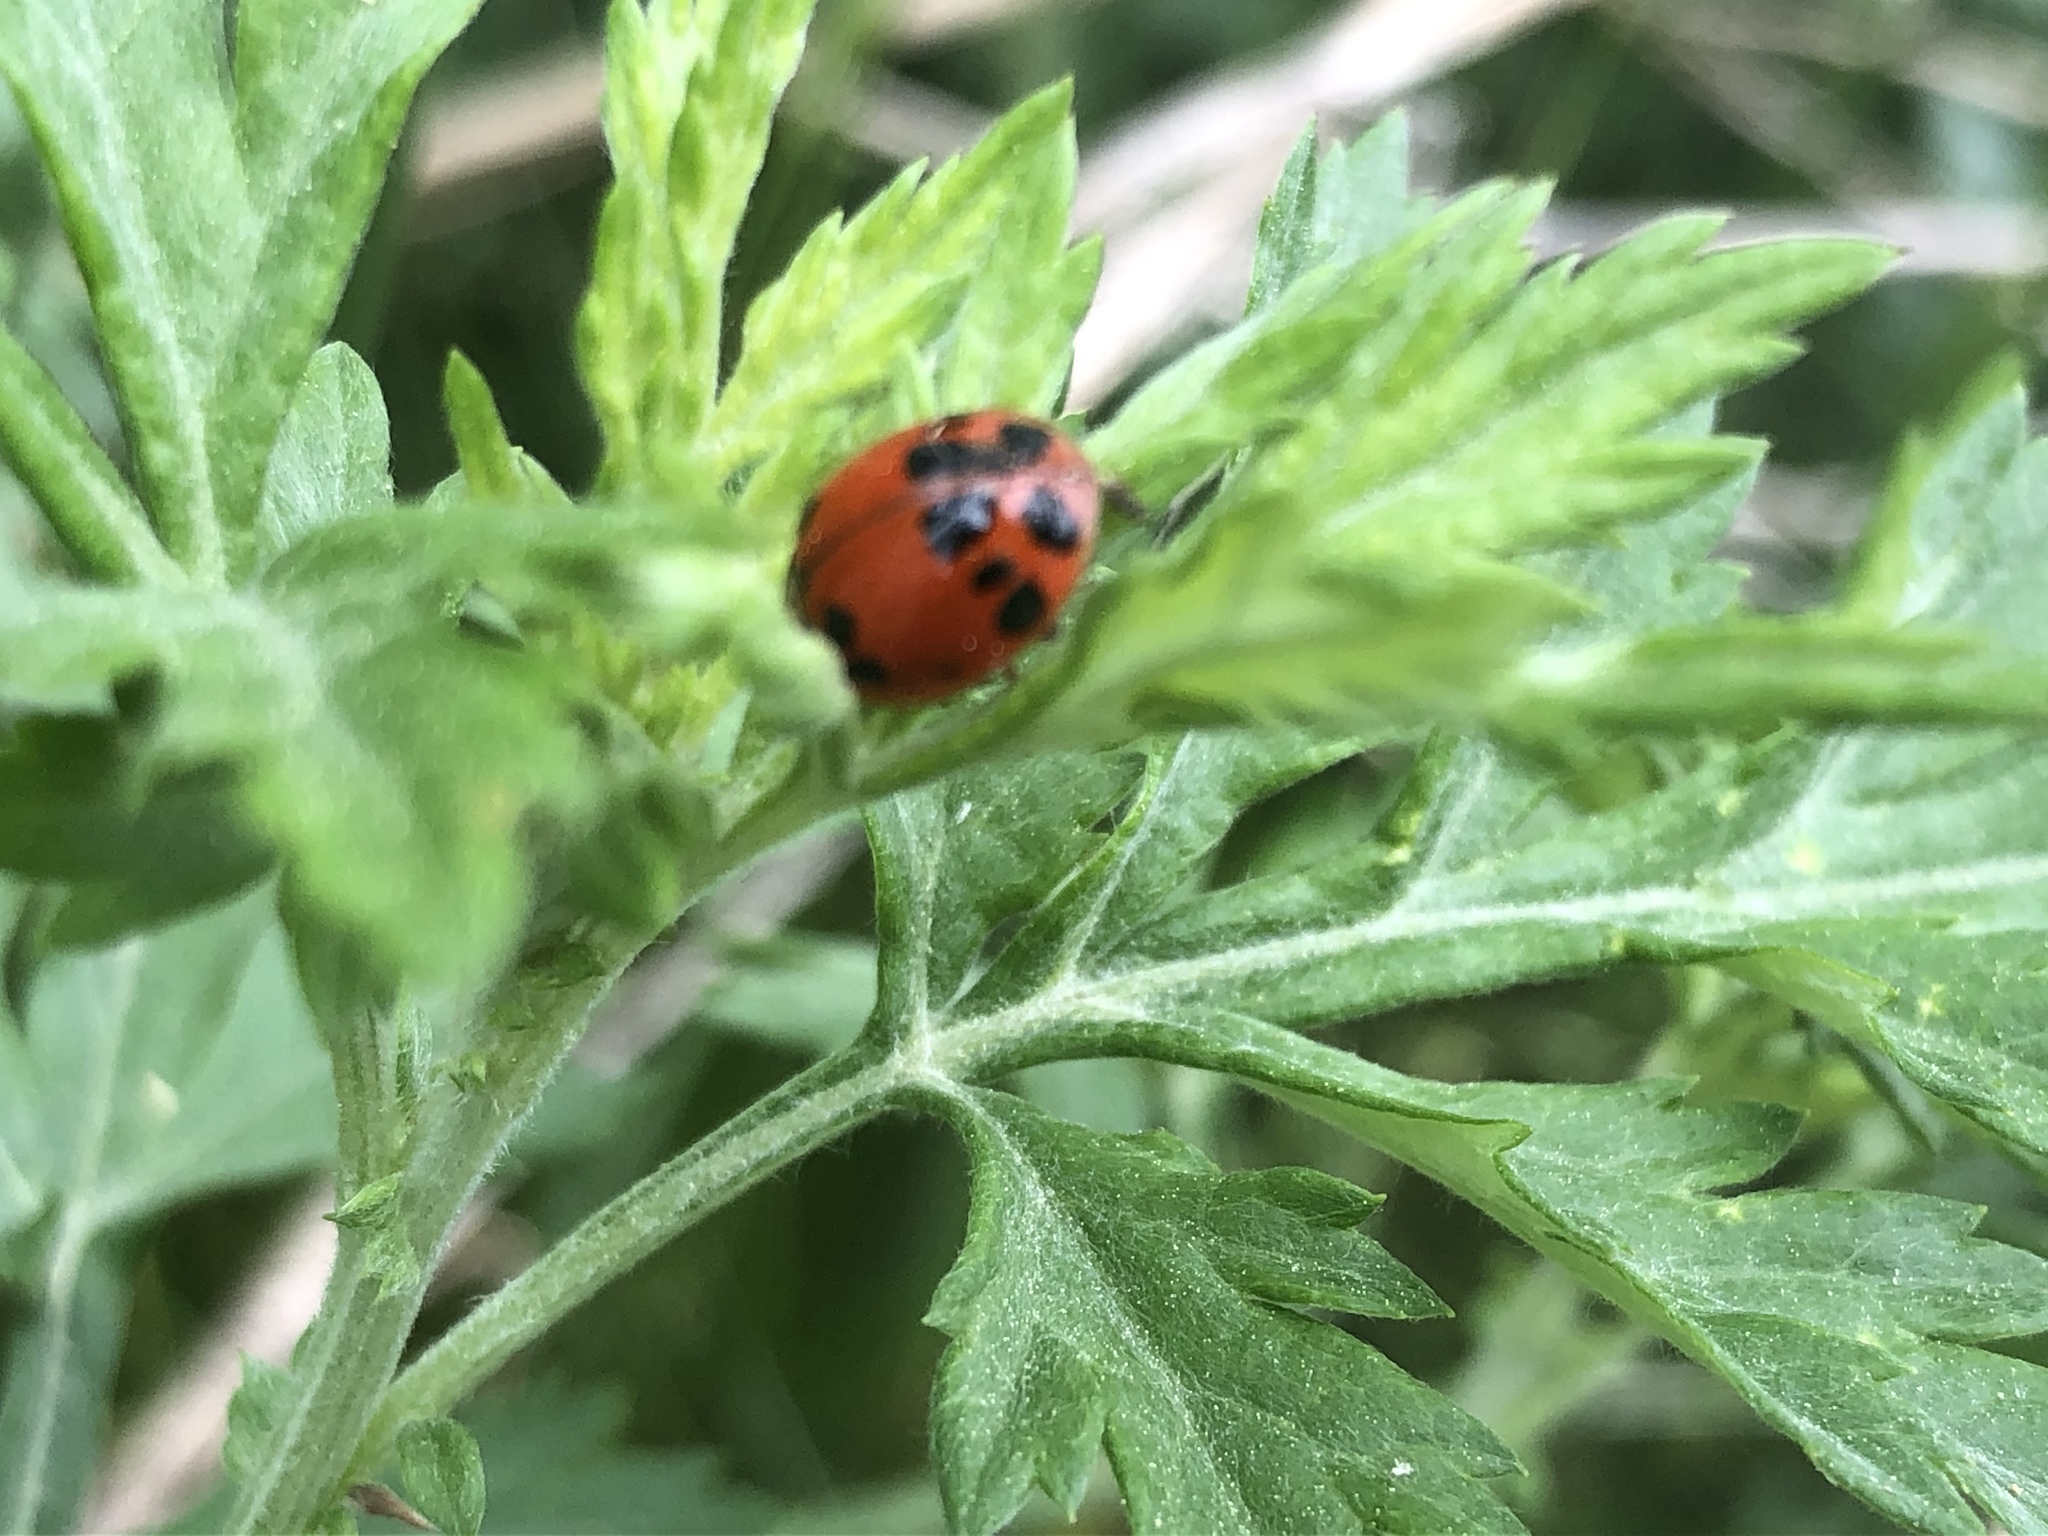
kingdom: Animalia
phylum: Arthropoda
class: Insecta
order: Coleoptera
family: Coccinellidae
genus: Harmonia
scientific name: Harmonia axyridis
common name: Harlequin ladybird
